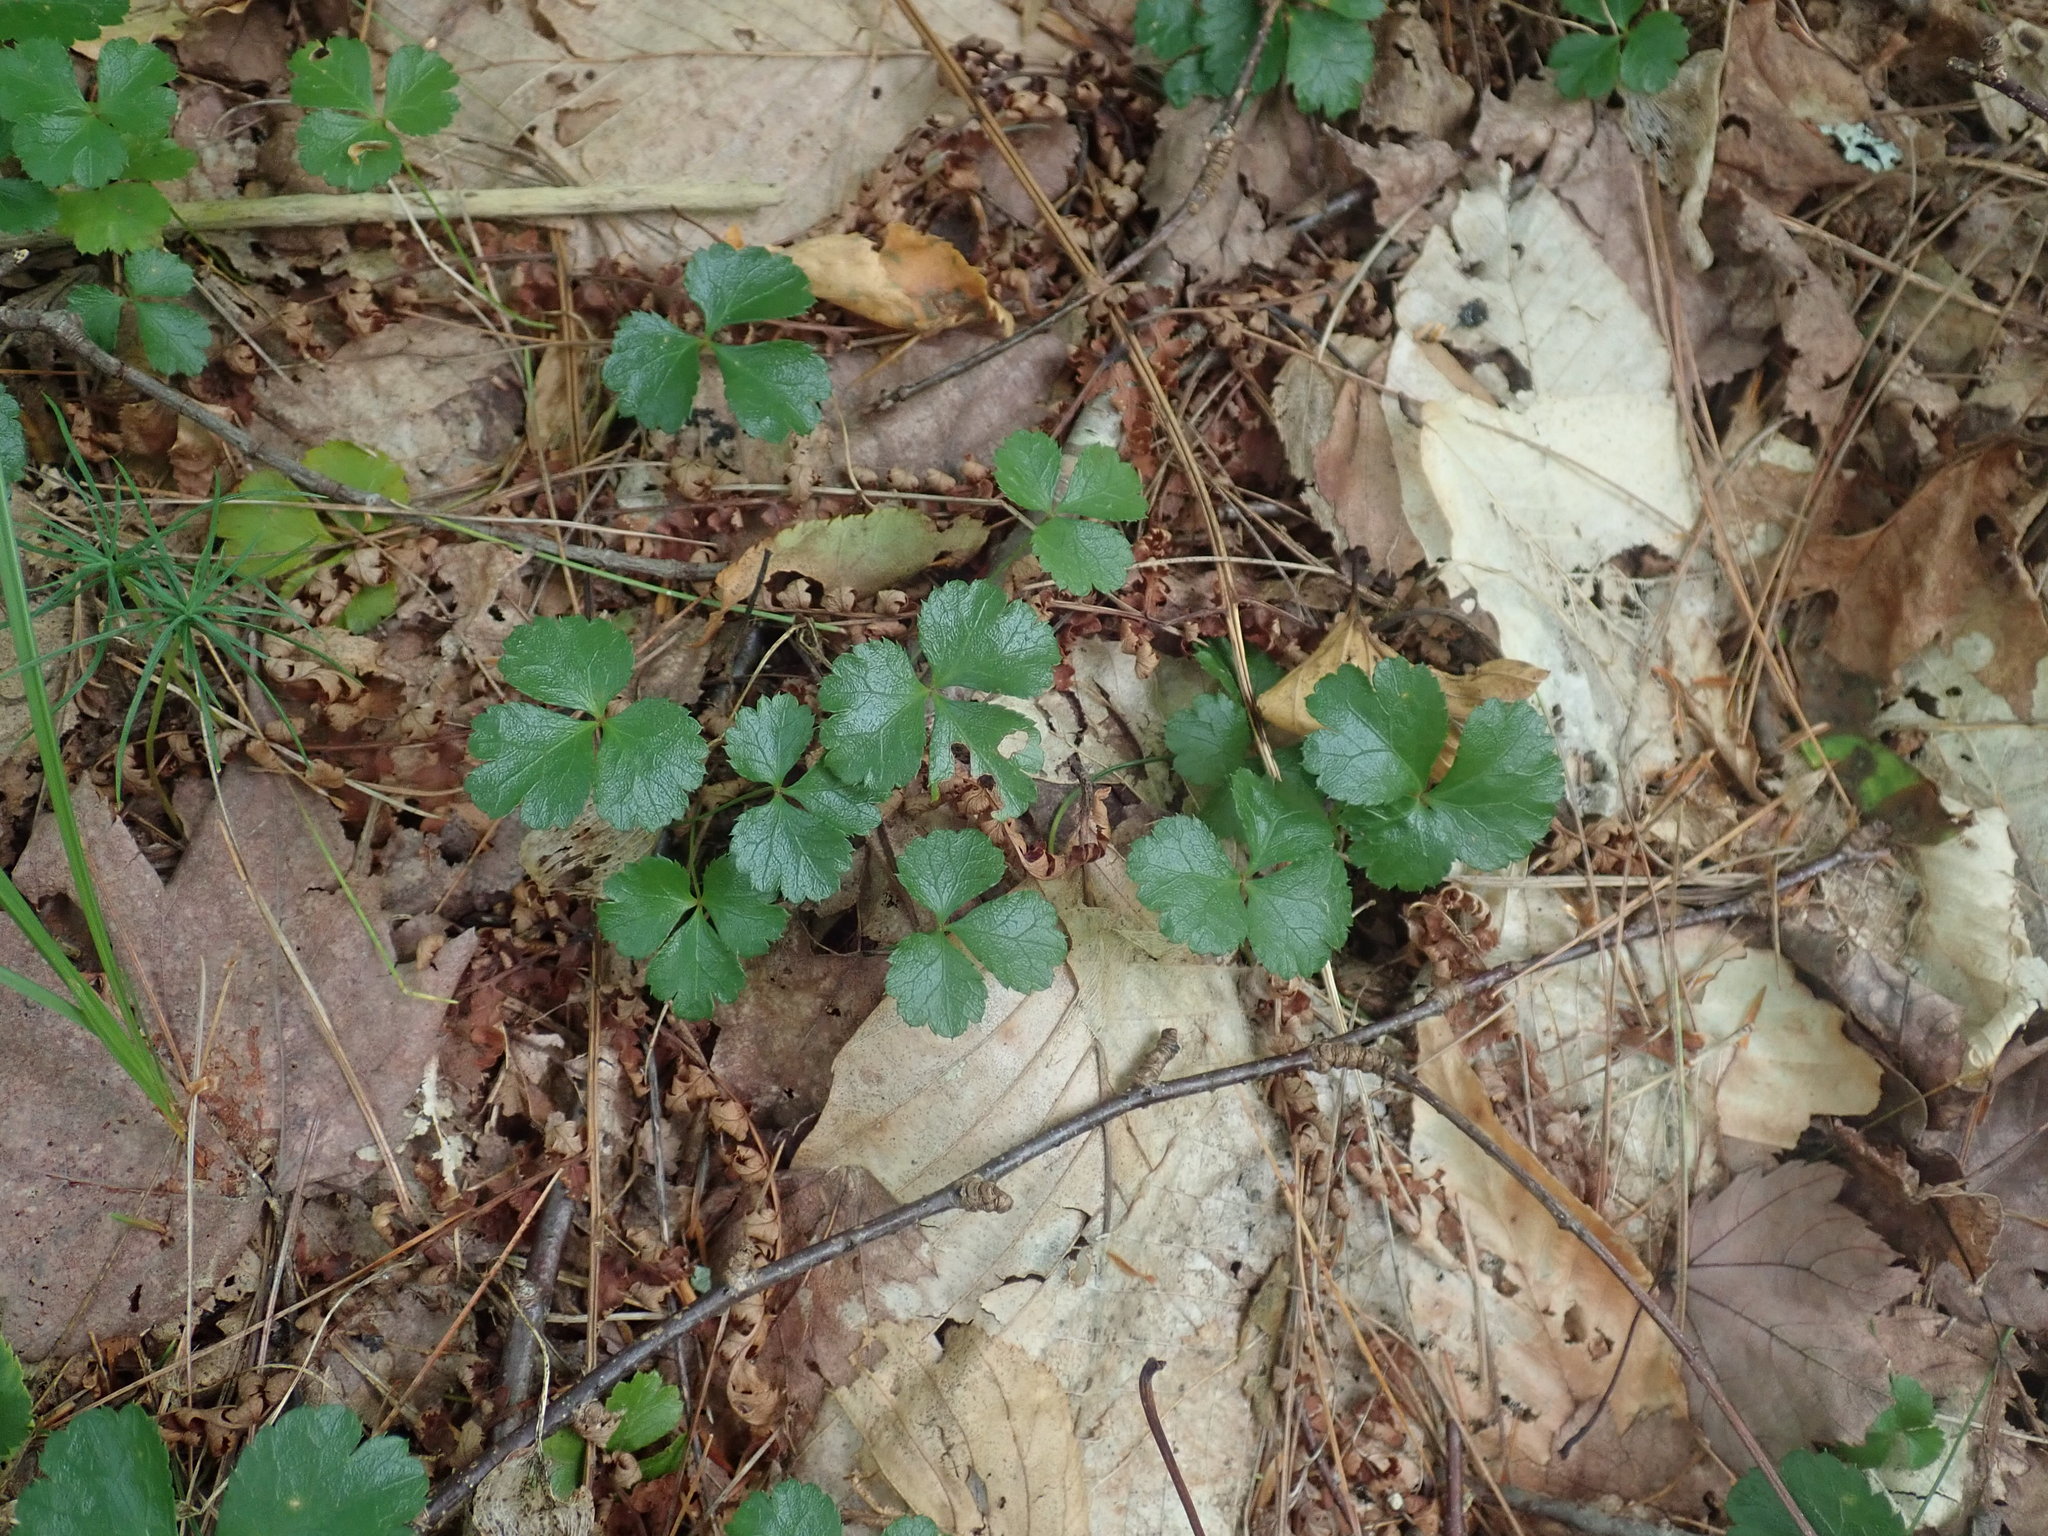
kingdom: Plantae
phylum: Tracheophyta
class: Magnoliopsida
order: Ranunculales
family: Ranunculaceae
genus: Coptis
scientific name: Coptis trifolia
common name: Canker-root
